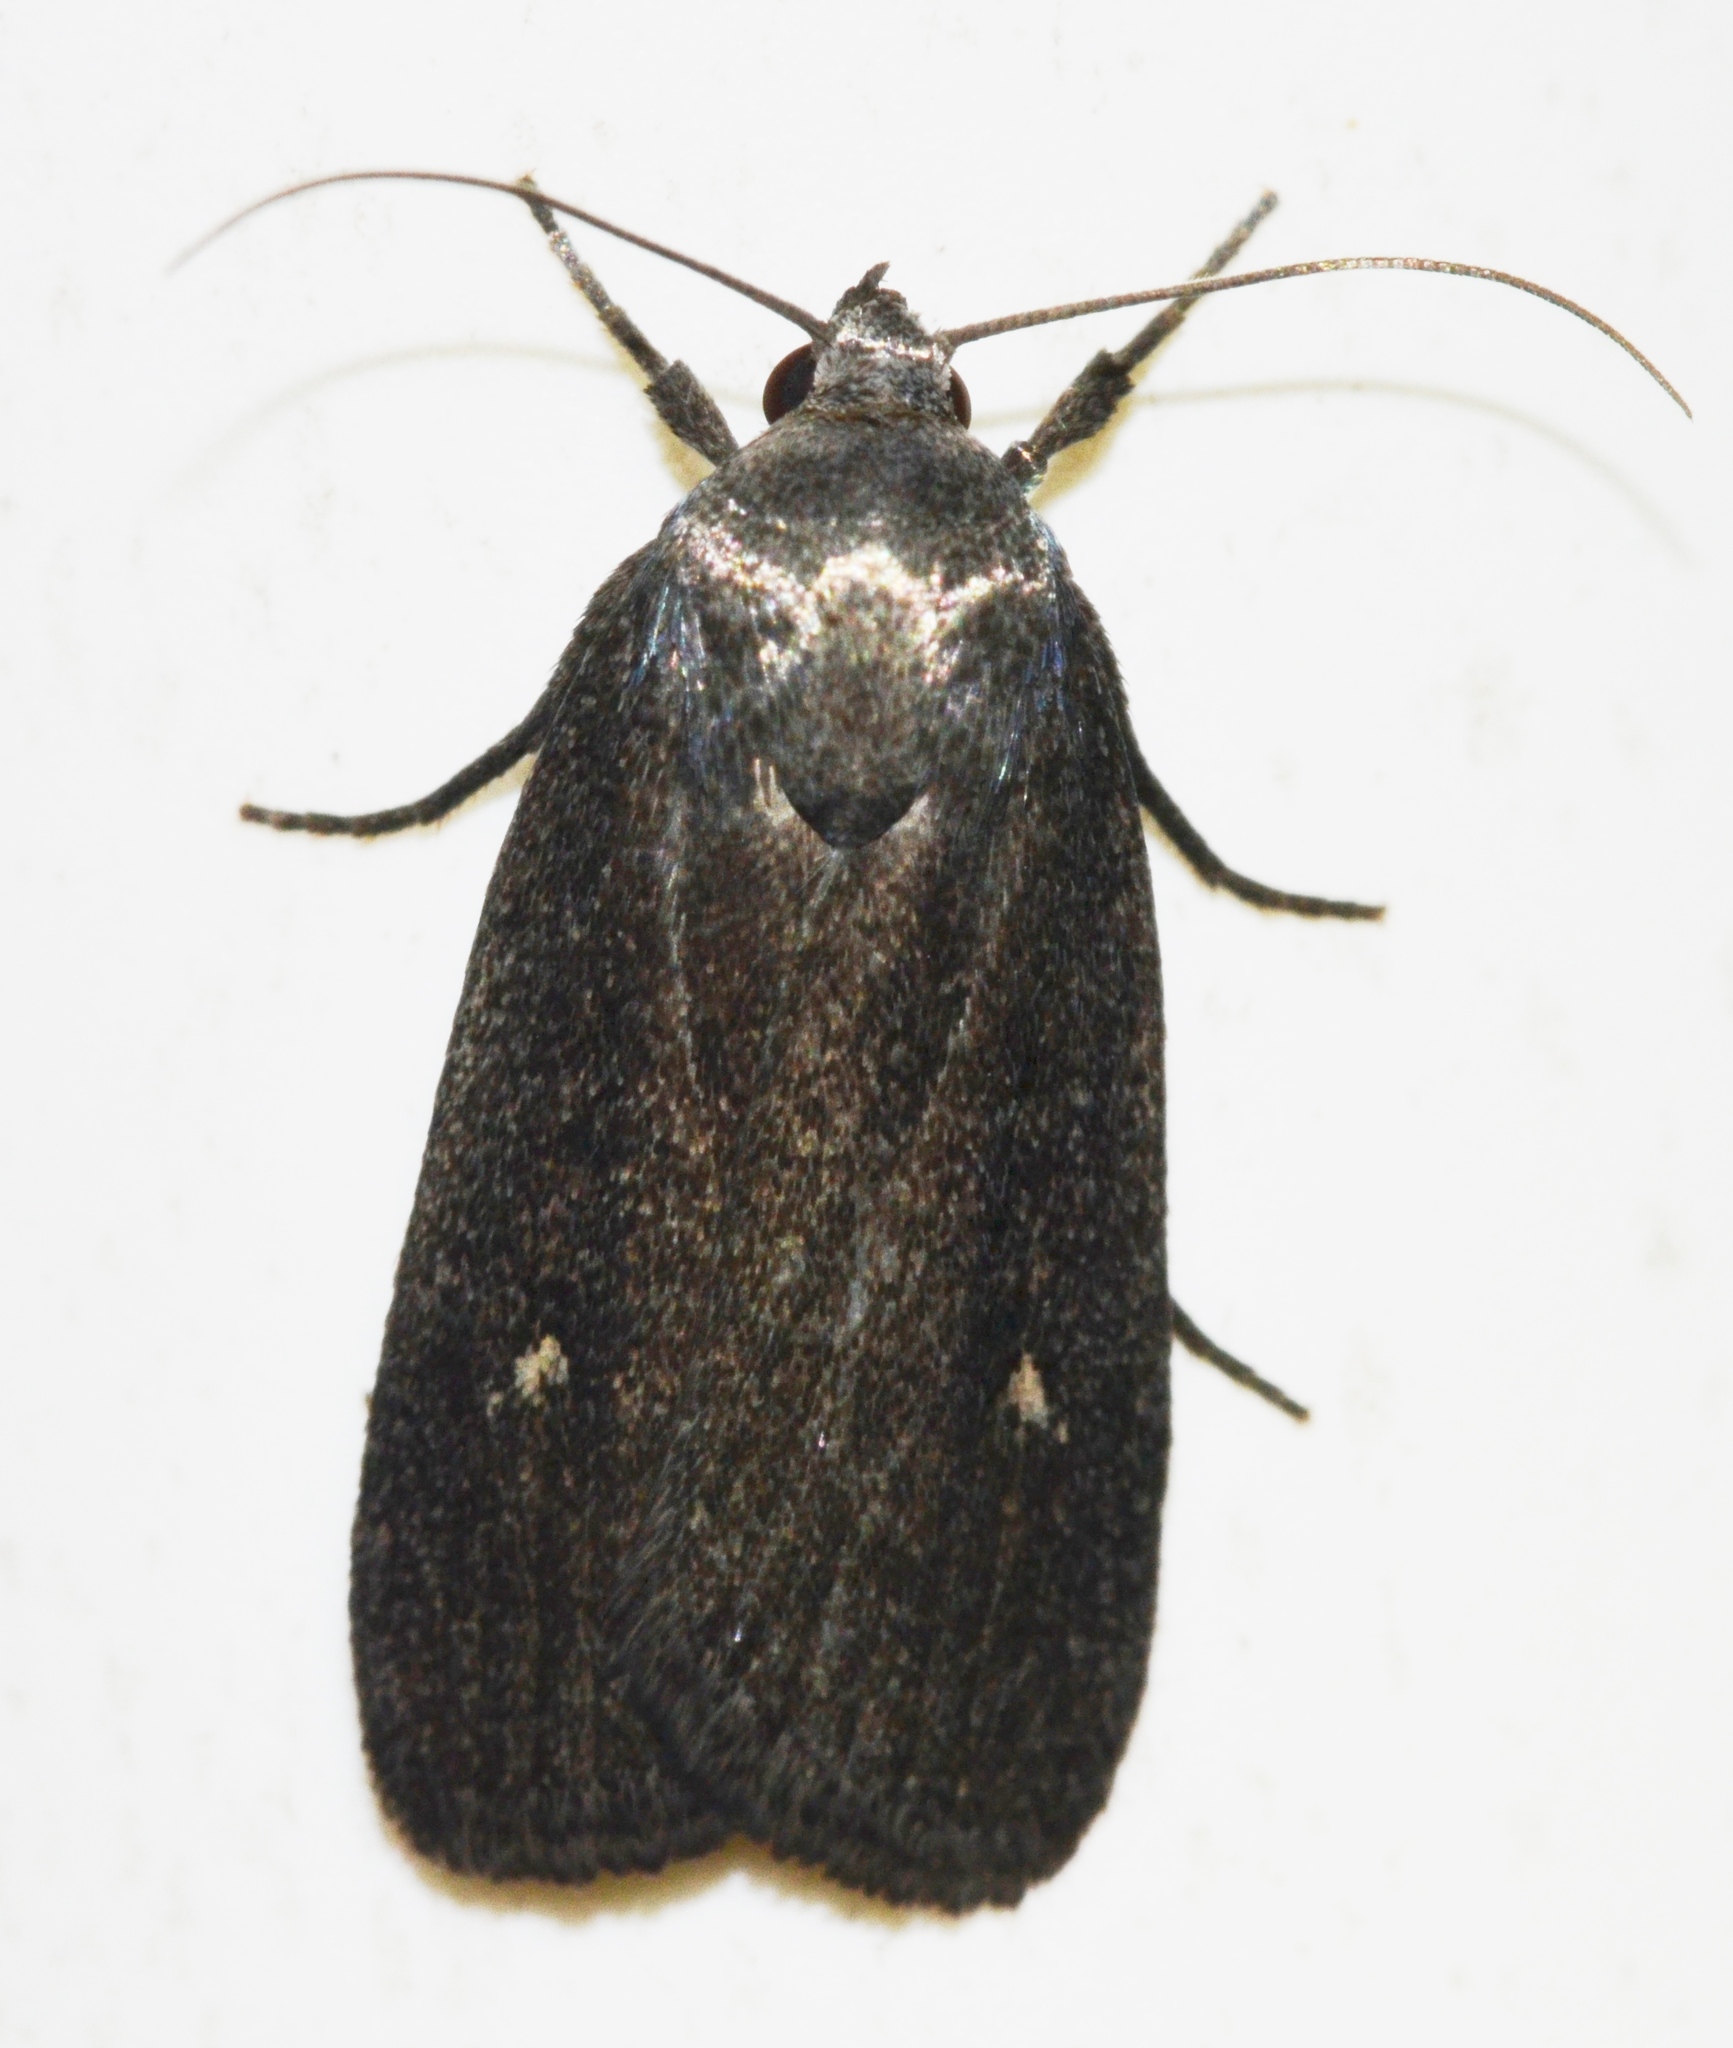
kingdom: Animalia
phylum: Arthropoda
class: Insecta
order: Lepidoptera
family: Noctuidae
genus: Proxenus
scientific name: Proxenus miranda
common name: Miranda moth
